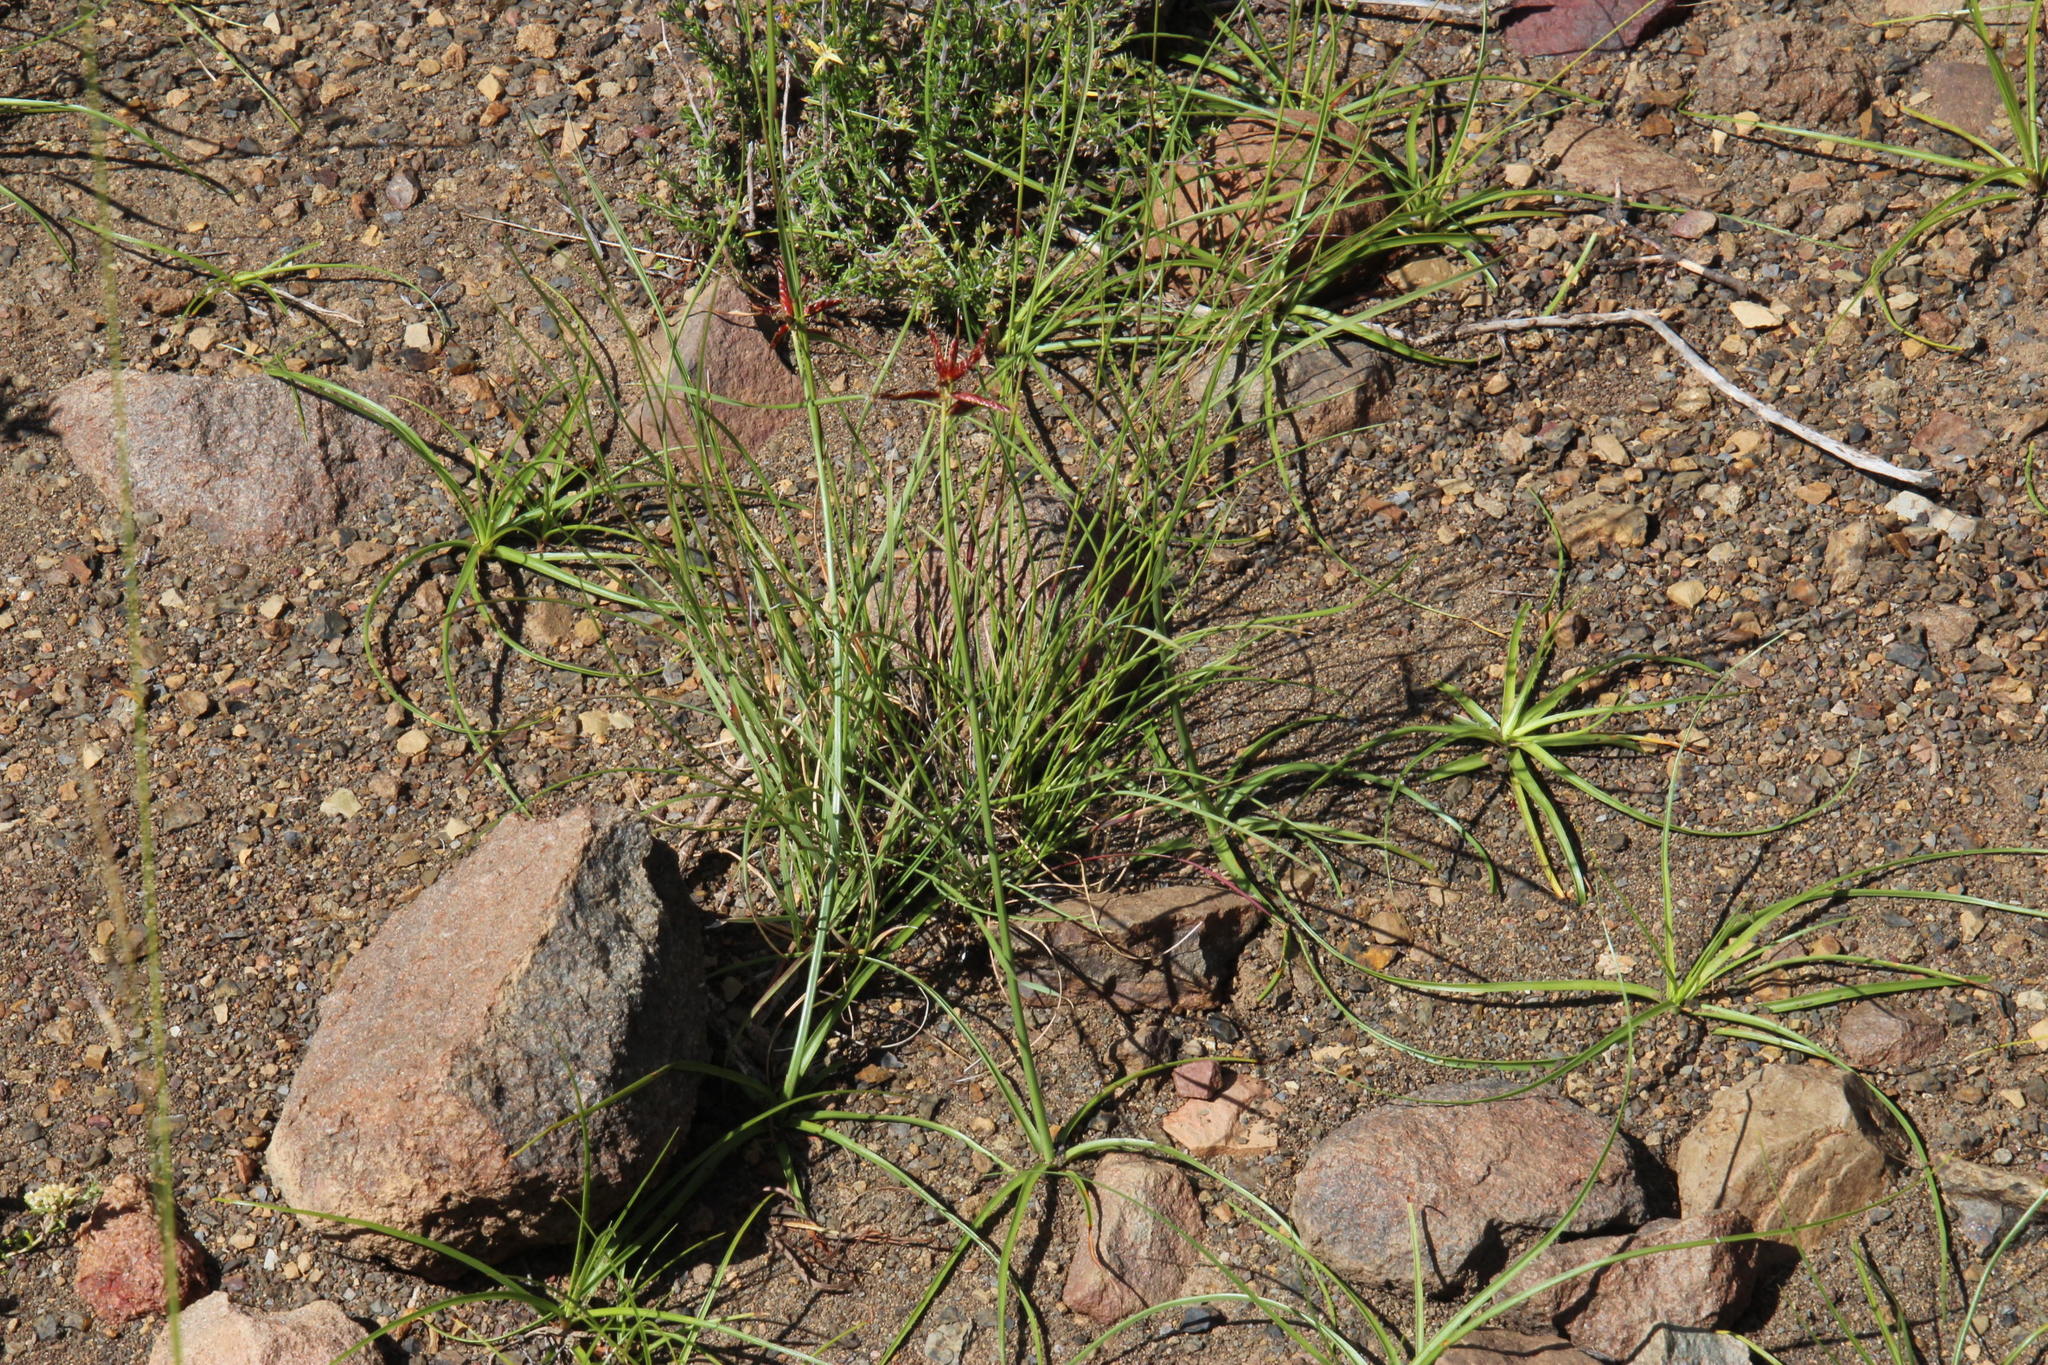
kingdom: Plantae
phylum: Tracheophyta
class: Liliopsida
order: Poales
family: Cyperaceae
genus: Cyperus
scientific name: Cyperus usitatus
